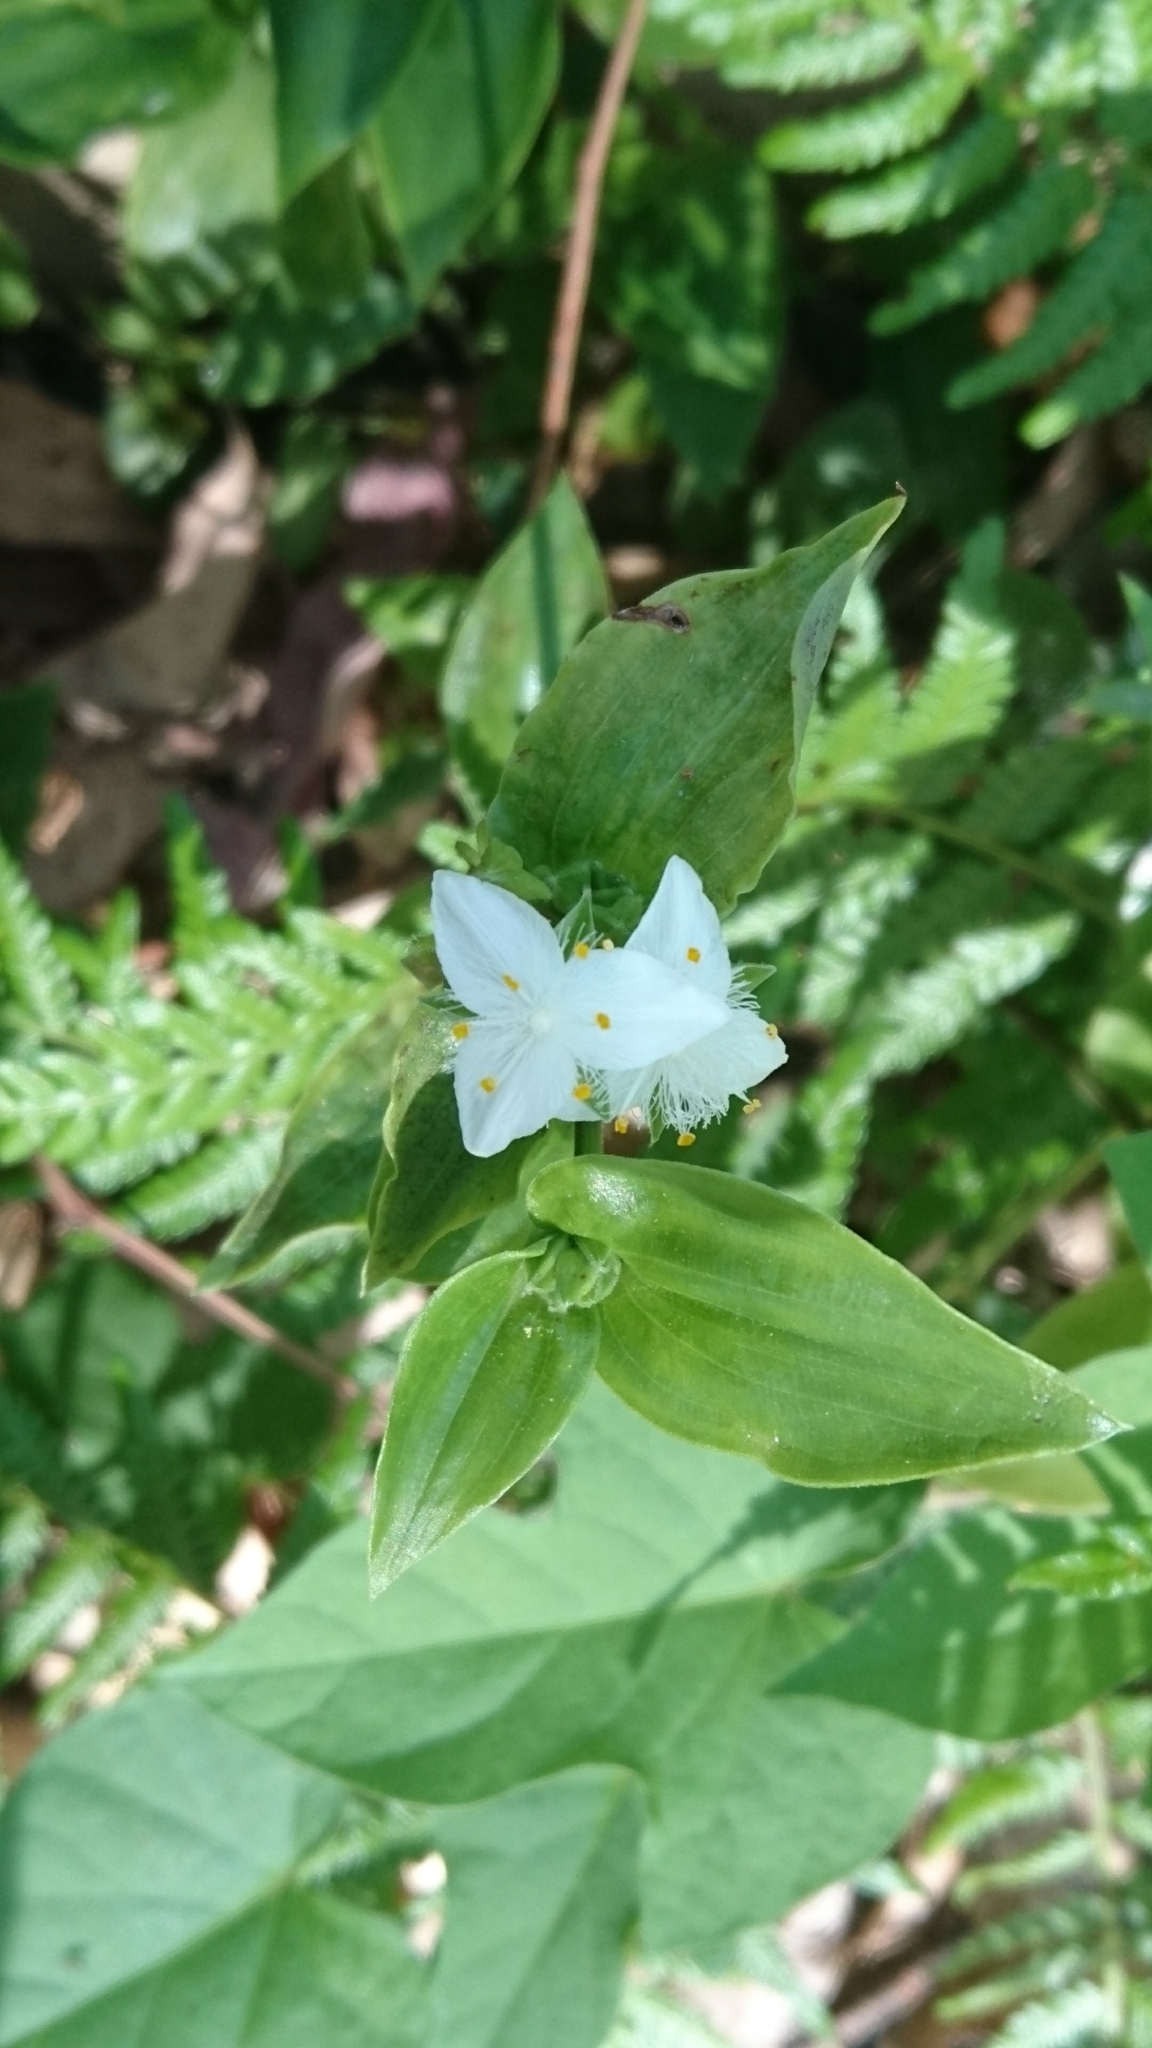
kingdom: Plantae
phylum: Tracheophyta
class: Liliopsida
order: Commelinales
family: Commelinaceae
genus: Tradescantia
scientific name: Tradescantia fluminensis
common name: Wandering-jew
